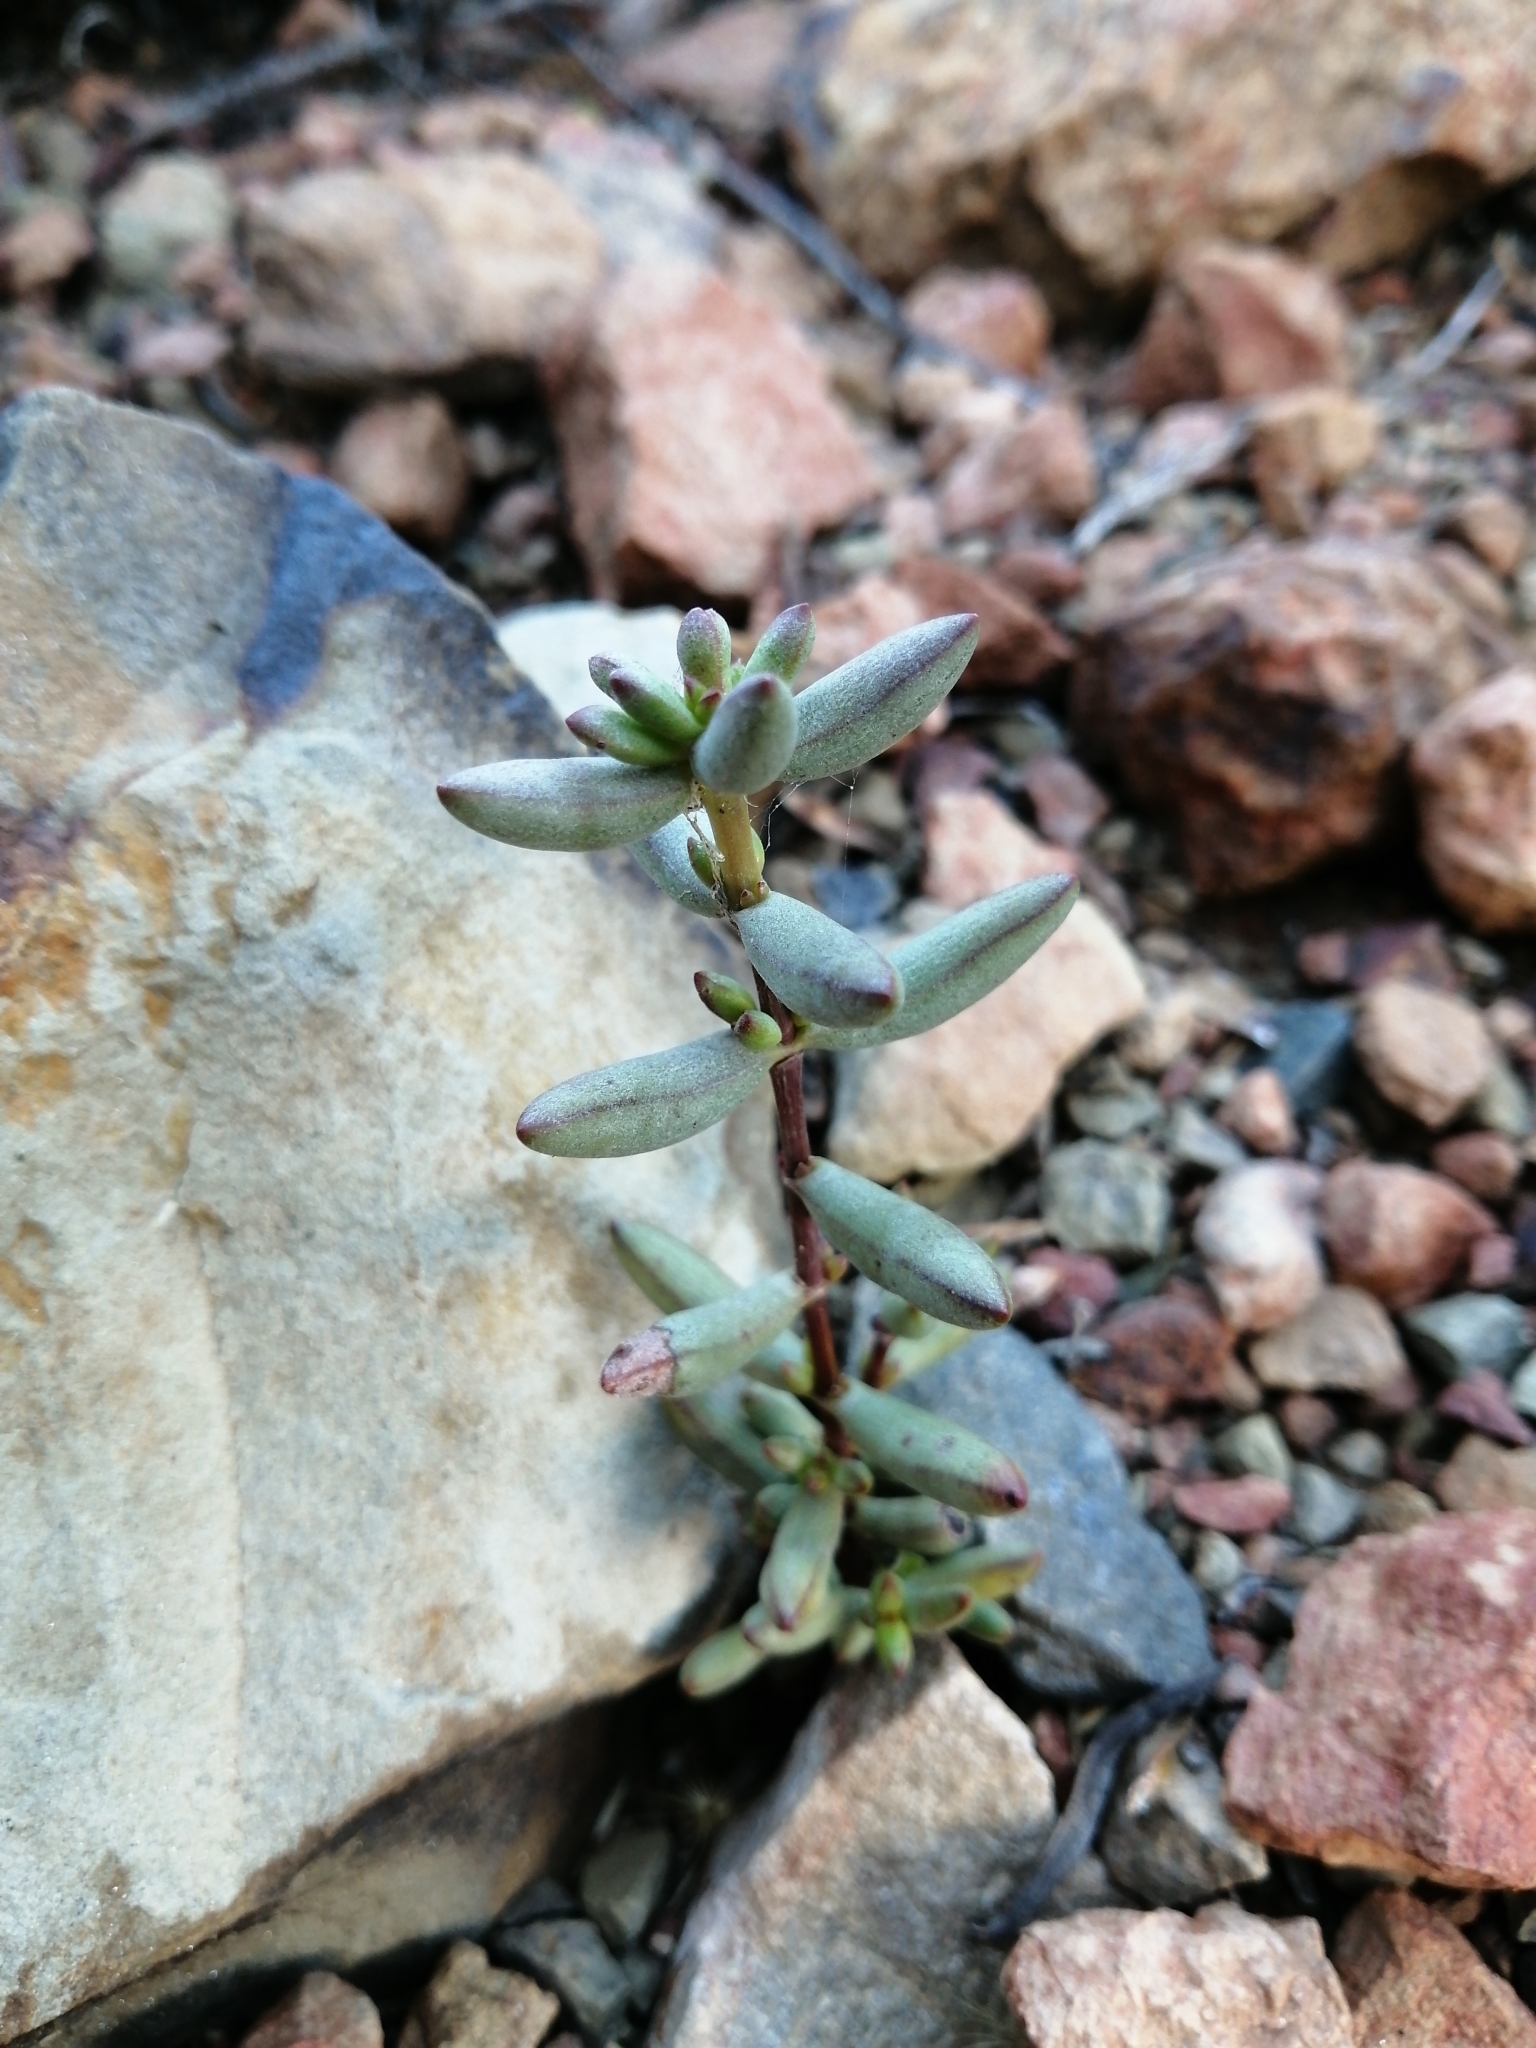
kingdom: Plantae
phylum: Tracheophyta
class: Magnoliopsida
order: Saxifragales
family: Crassulaceae
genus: Crassula
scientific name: Crassula subaphylla
